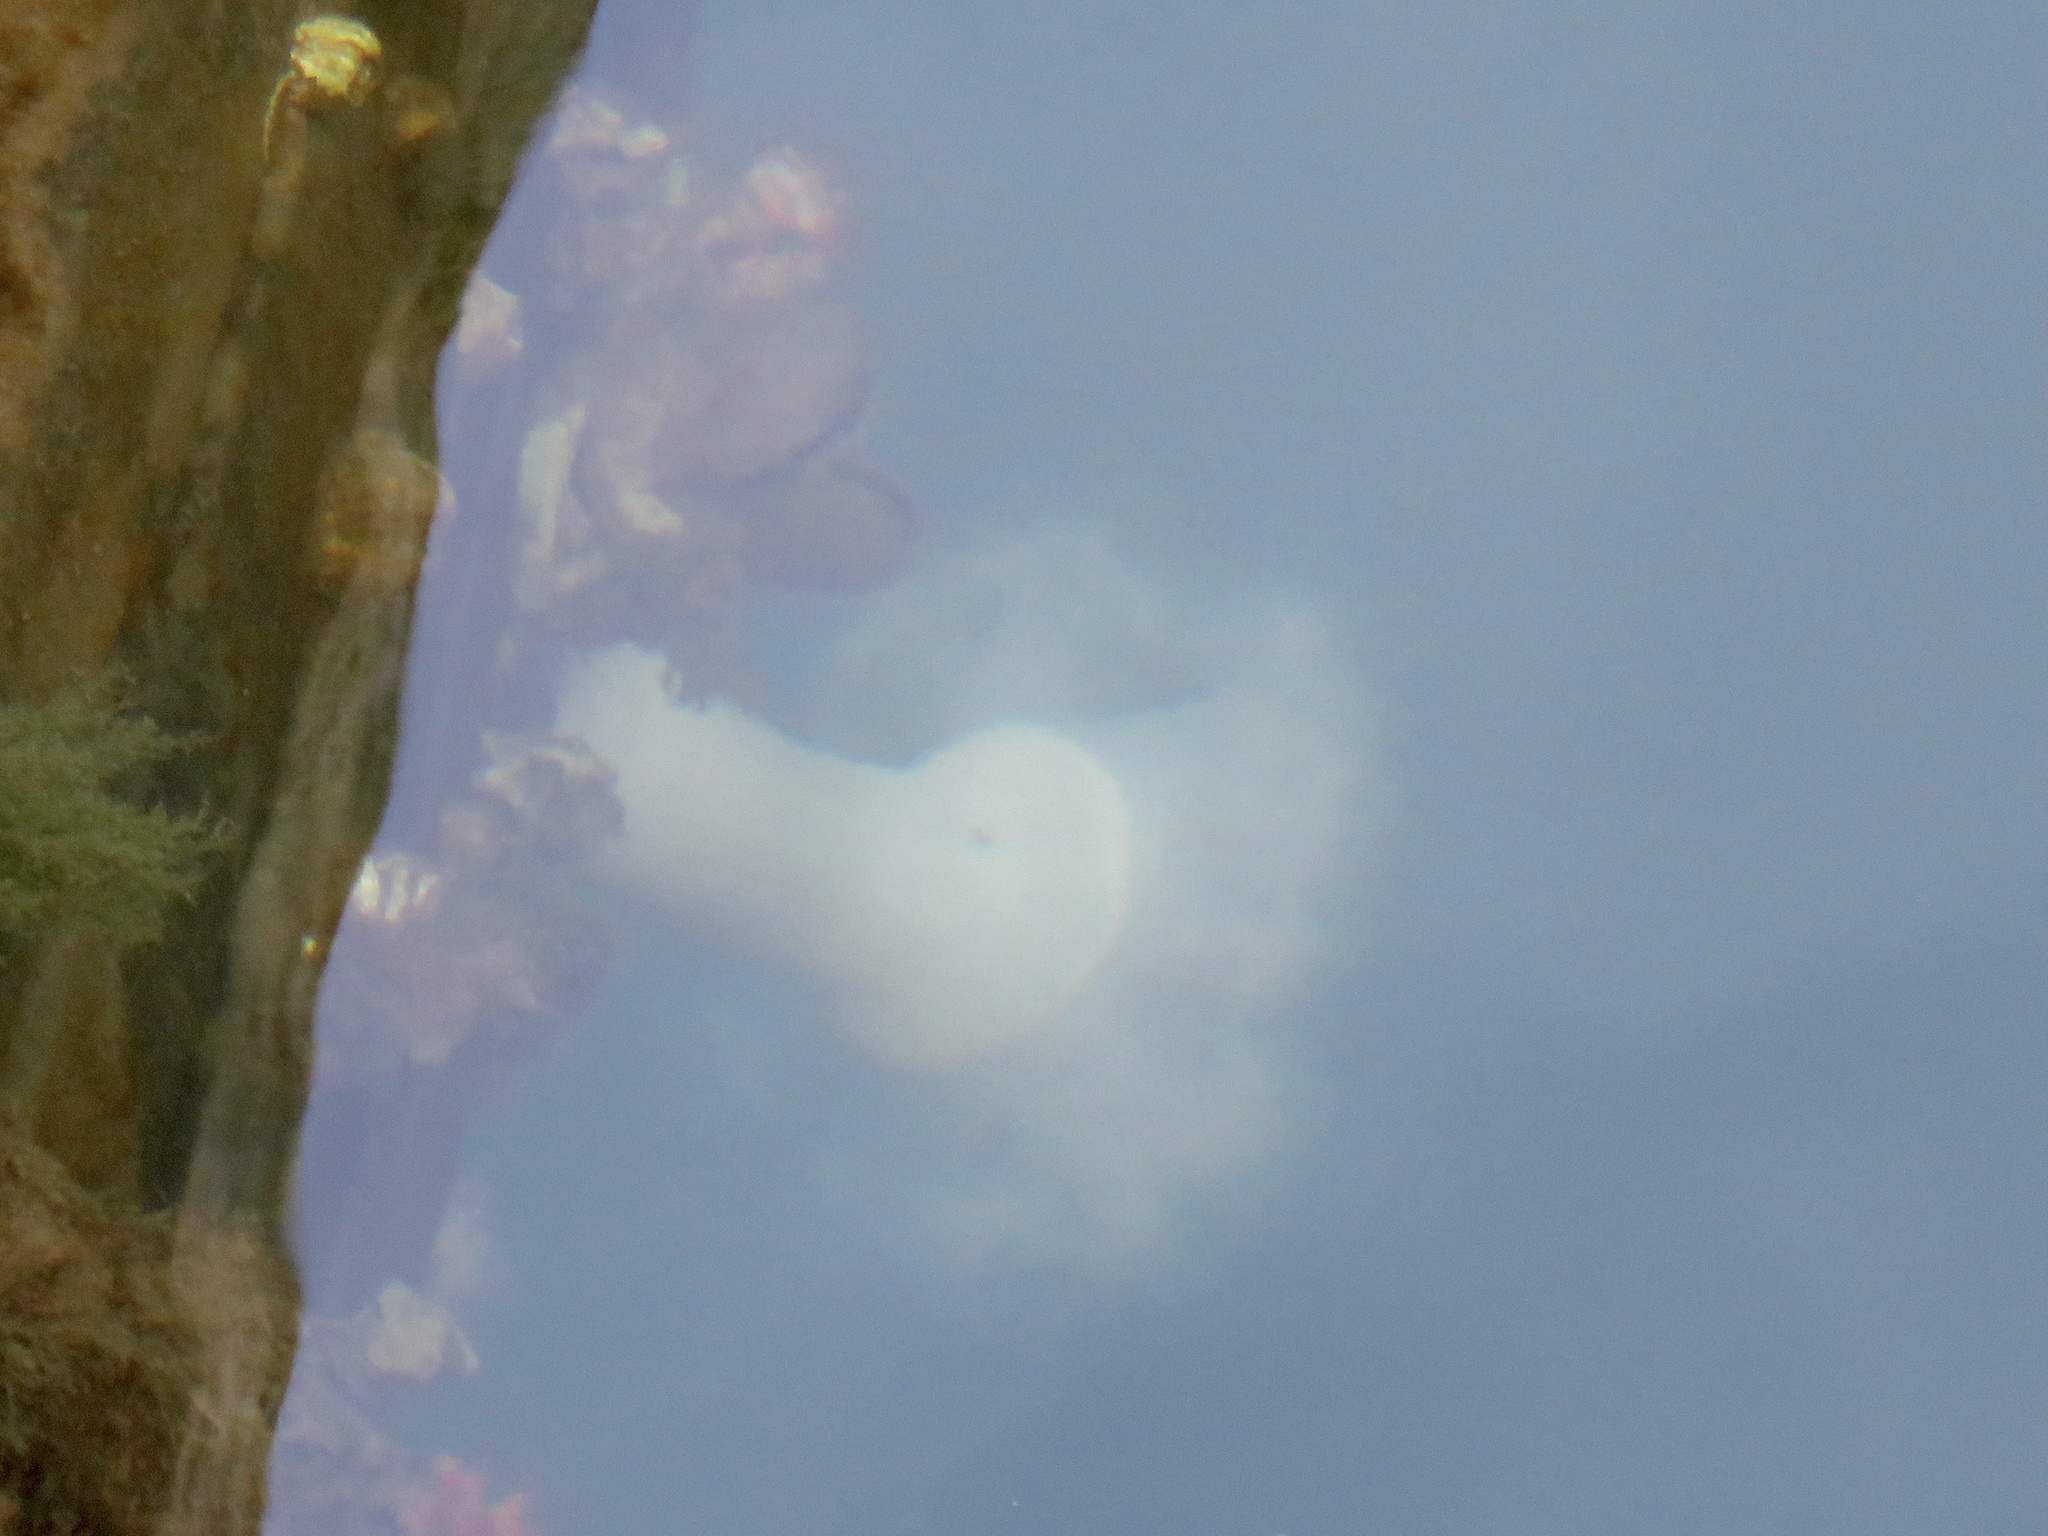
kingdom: Animalia
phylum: Cnidaria
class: Anthozoa
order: Actiniaria
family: Metridiidae
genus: Metridium
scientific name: Metridium farcimen
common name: Gigantic anemone
